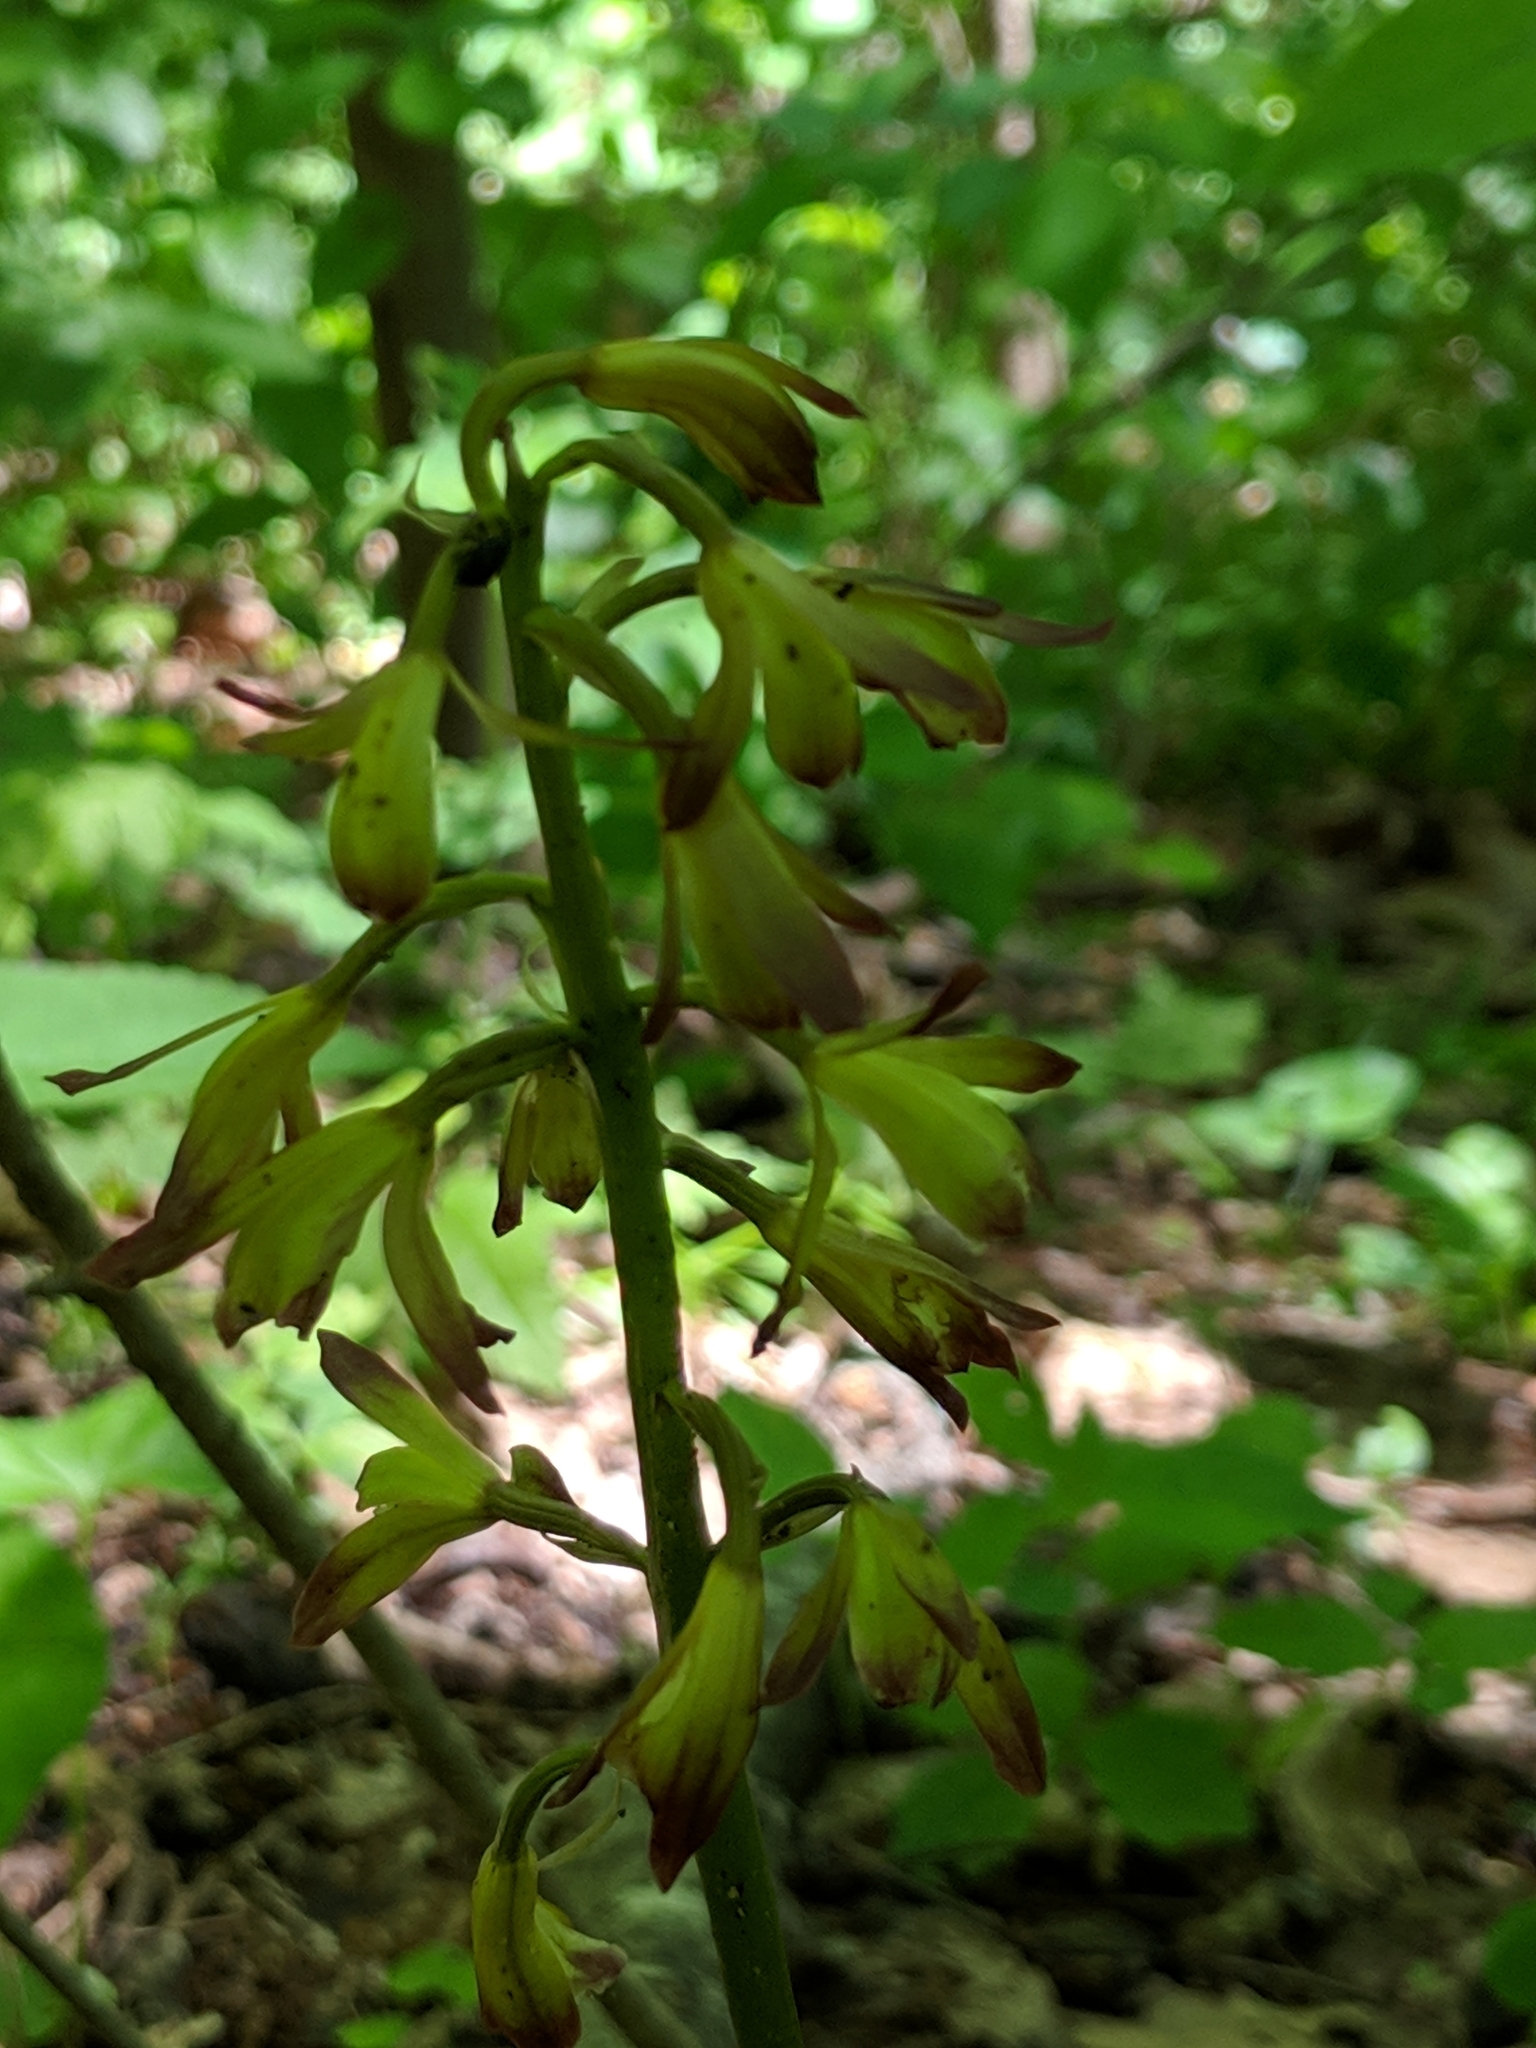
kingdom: Plantae
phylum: Tracheophyta
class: Liliopsida
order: Asparagales
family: Orchidaceae
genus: Aplectrum
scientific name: Aplectrum hyemale
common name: Adam-and-eve
